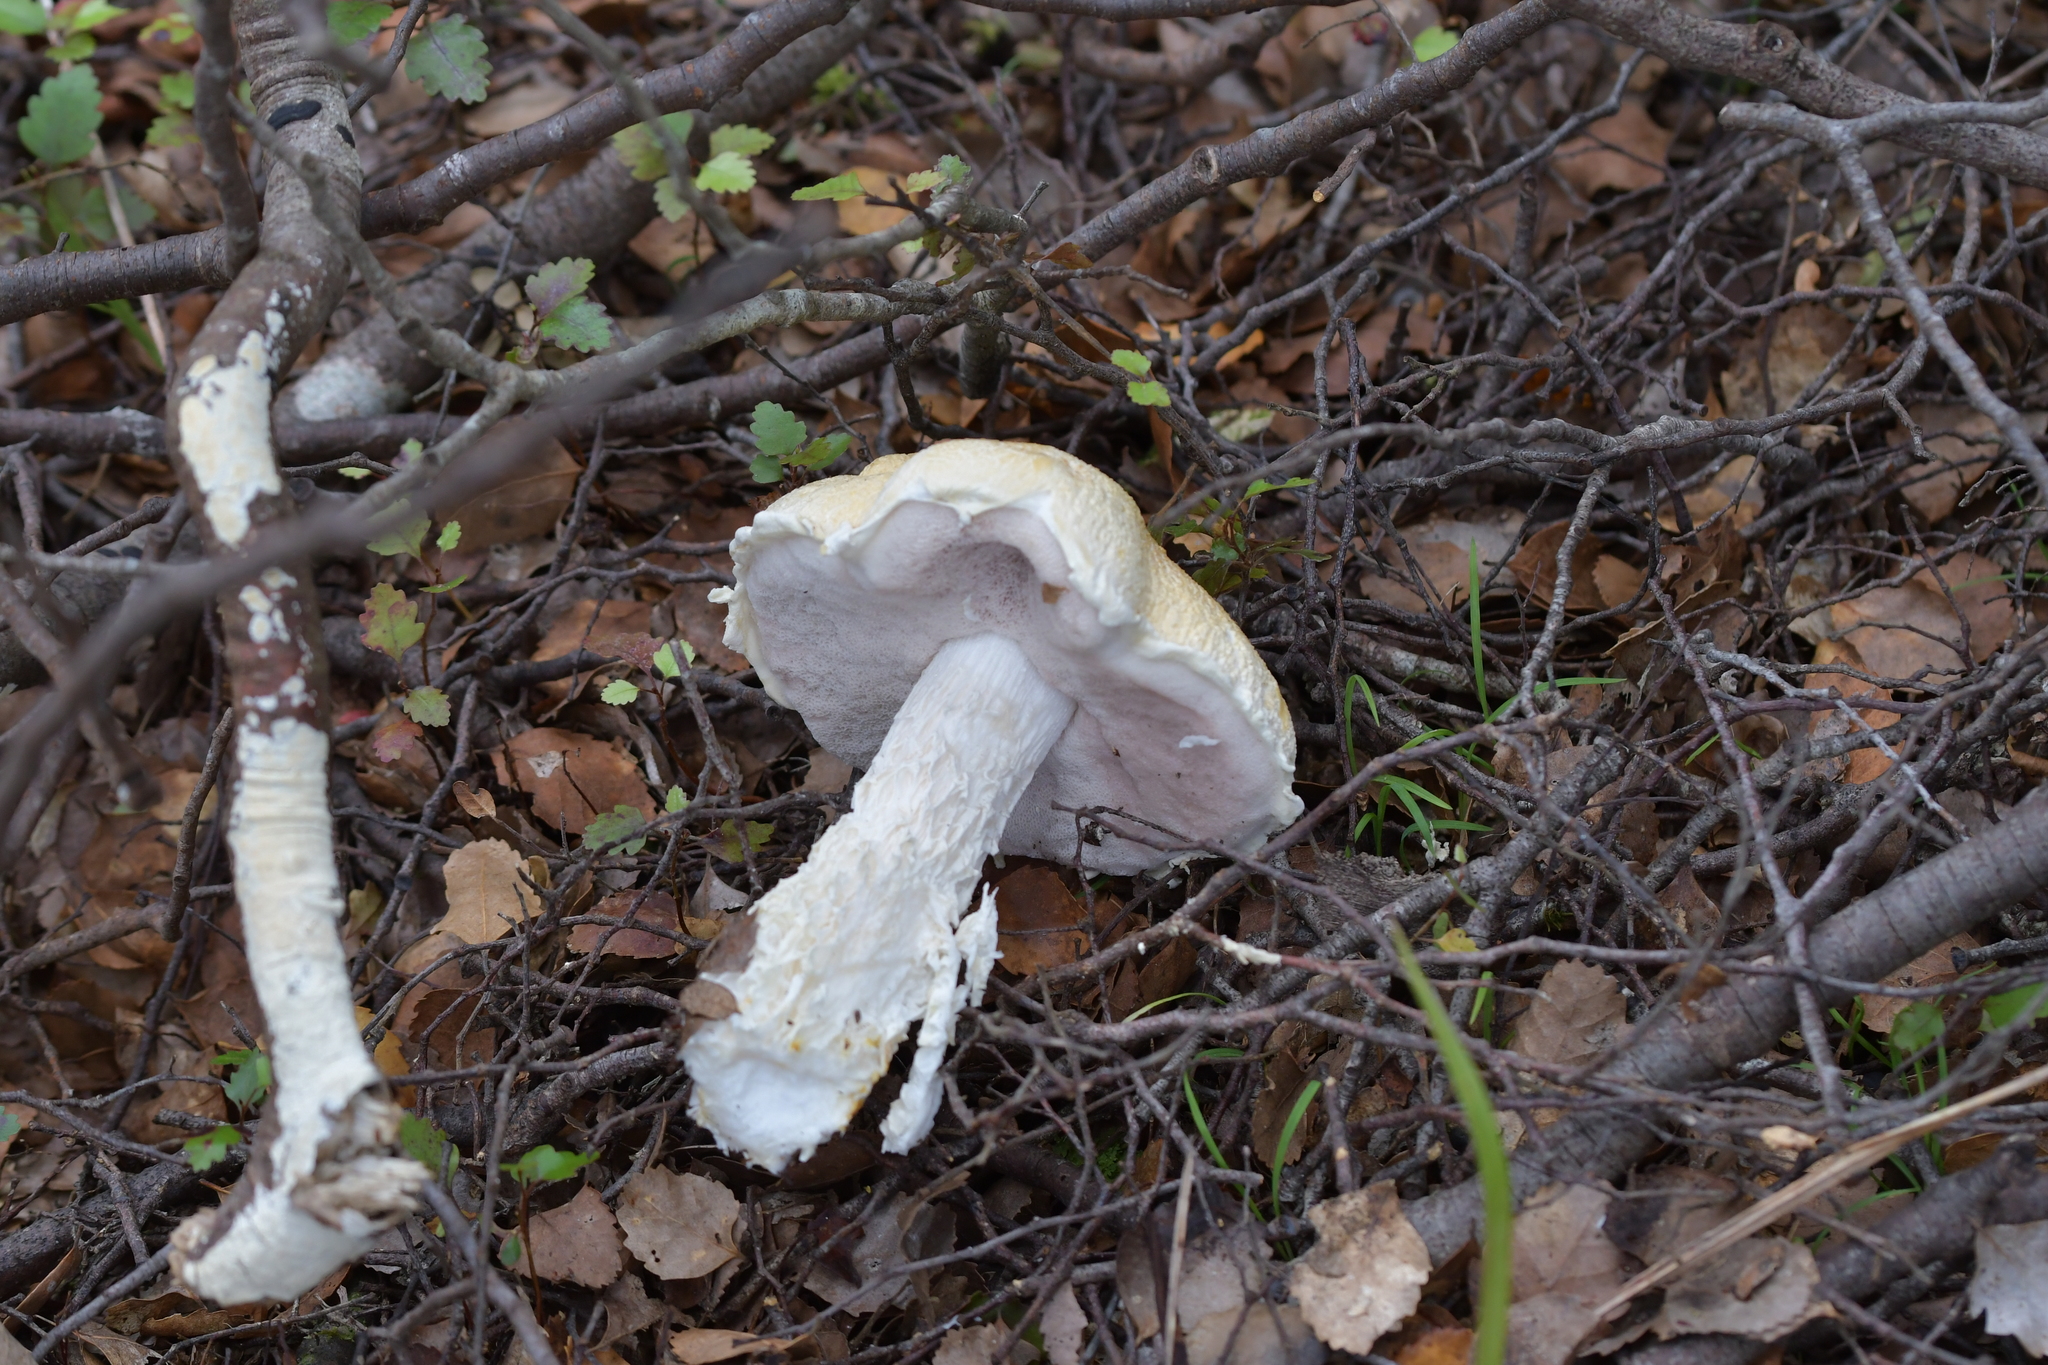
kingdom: Fungi
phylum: Basidiomycota
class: Agaricomycetes
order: Boletales
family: Boletaceae
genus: Fistulinella
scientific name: Fistulinella nivea
